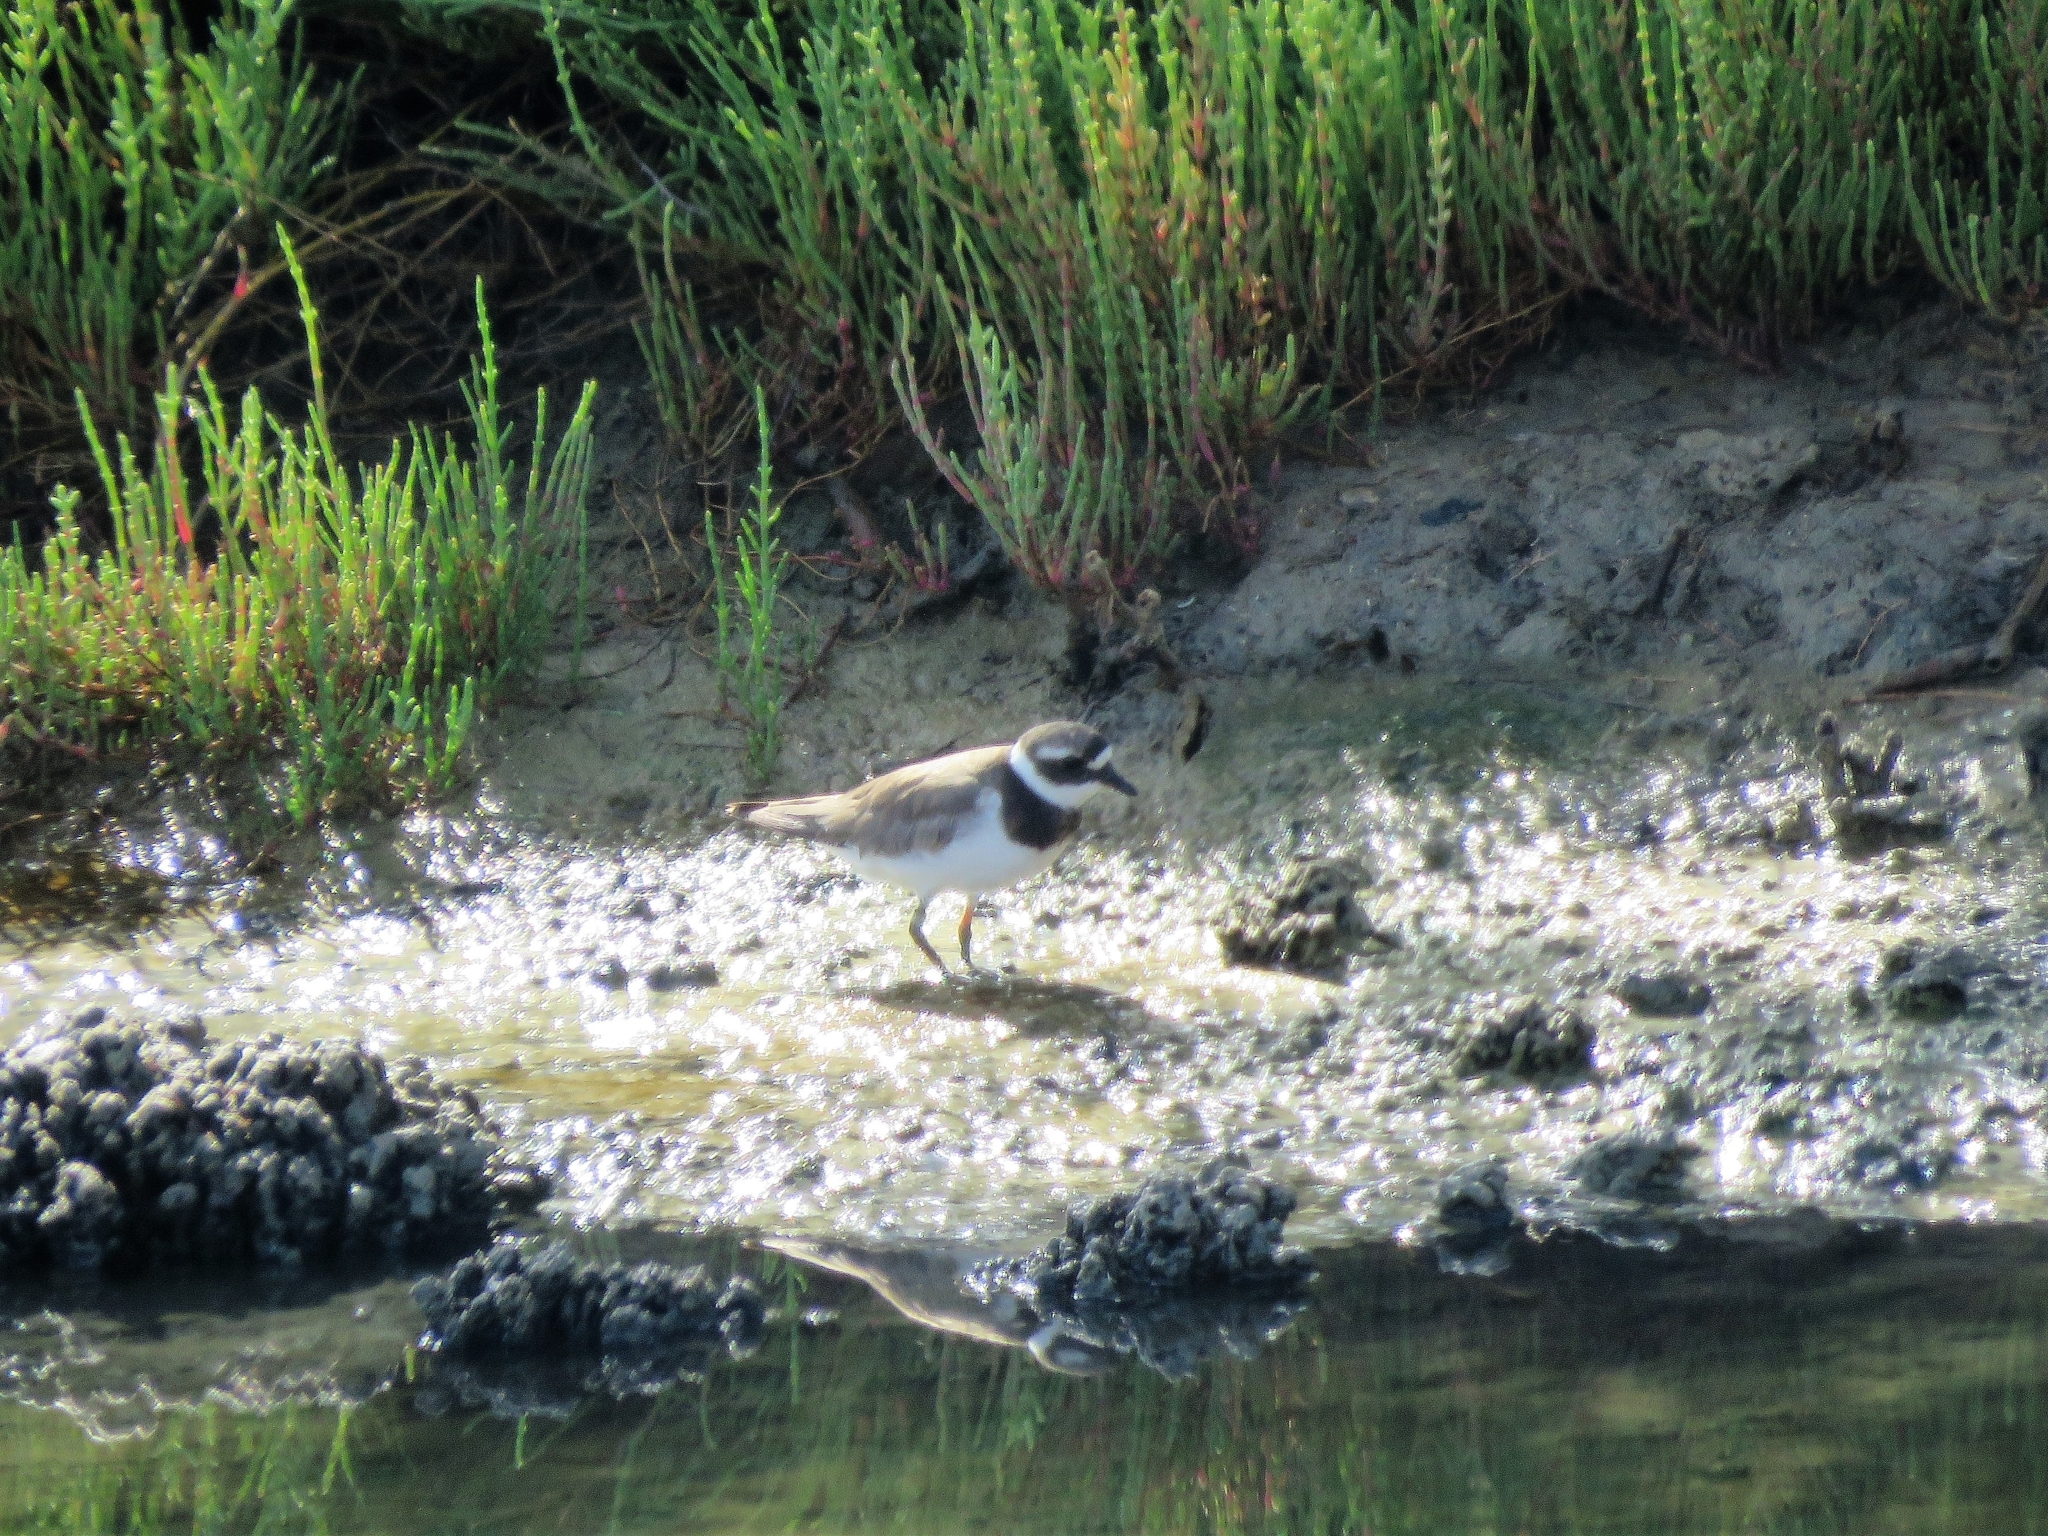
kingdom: Animalia
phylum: Chordata
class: Aves
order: Charadriiformes
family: Charadriidae
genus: Charadrius
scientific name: Charadrius hiaticula
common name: Common ringed plover
